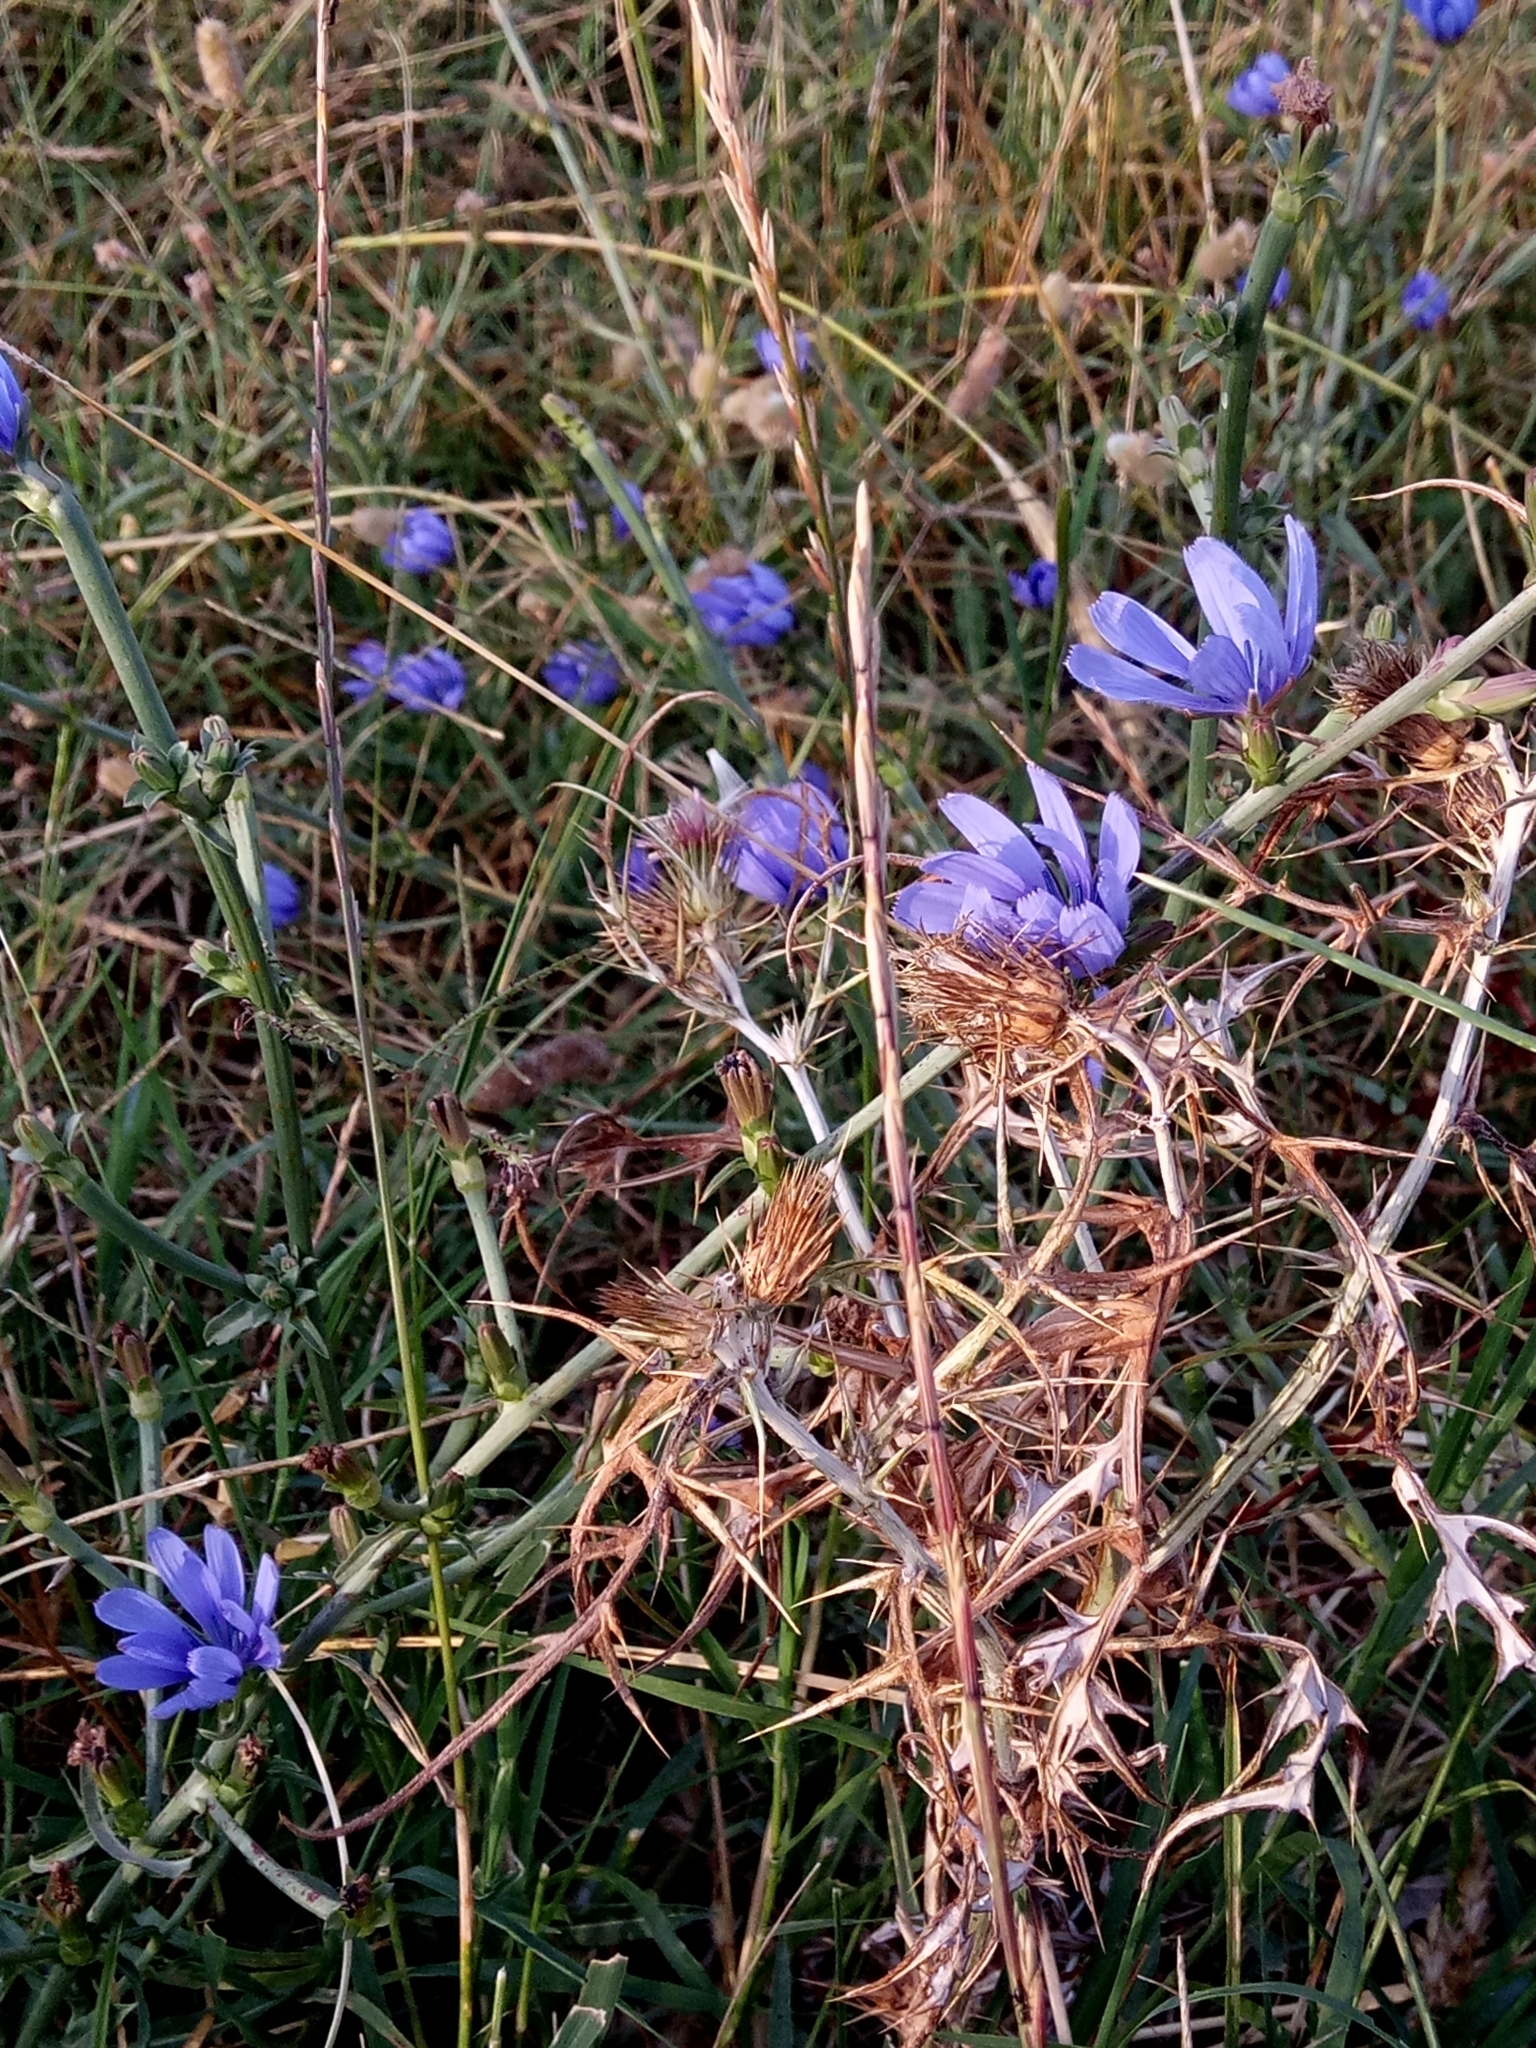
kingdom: Plantae
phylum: Tracheophyta
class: Magnoliopsida
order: Asterales
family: Asteraceae
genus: Cichorium
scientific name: Cichorium intybus
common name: Chicory
